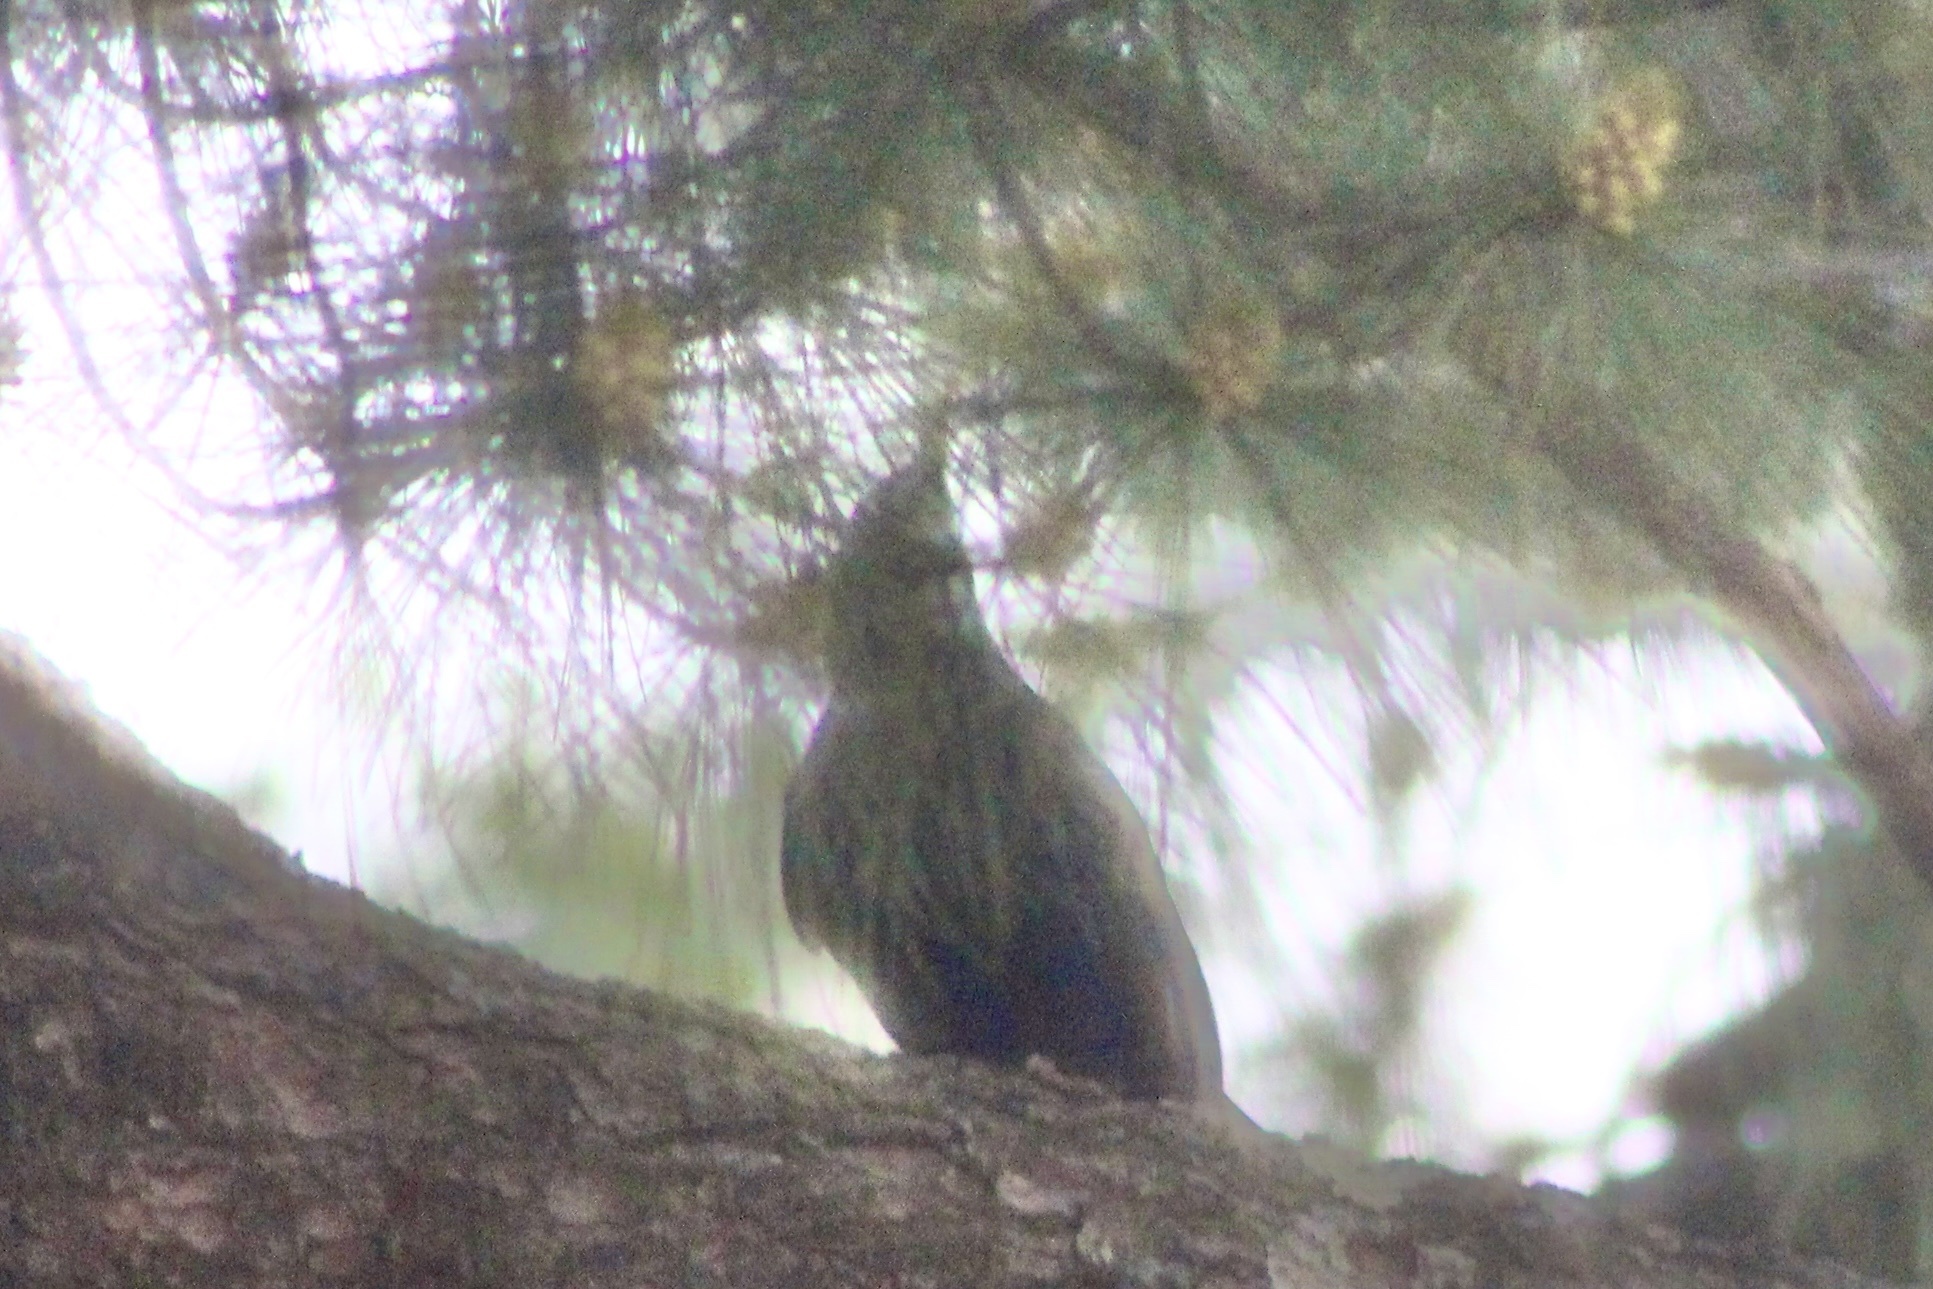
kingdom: Animalia
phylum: Chordata
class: Aves
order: Passeriformes
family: Sturnidae
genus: Sturnus
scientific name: Sturnus vulgaris
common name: Common starling
